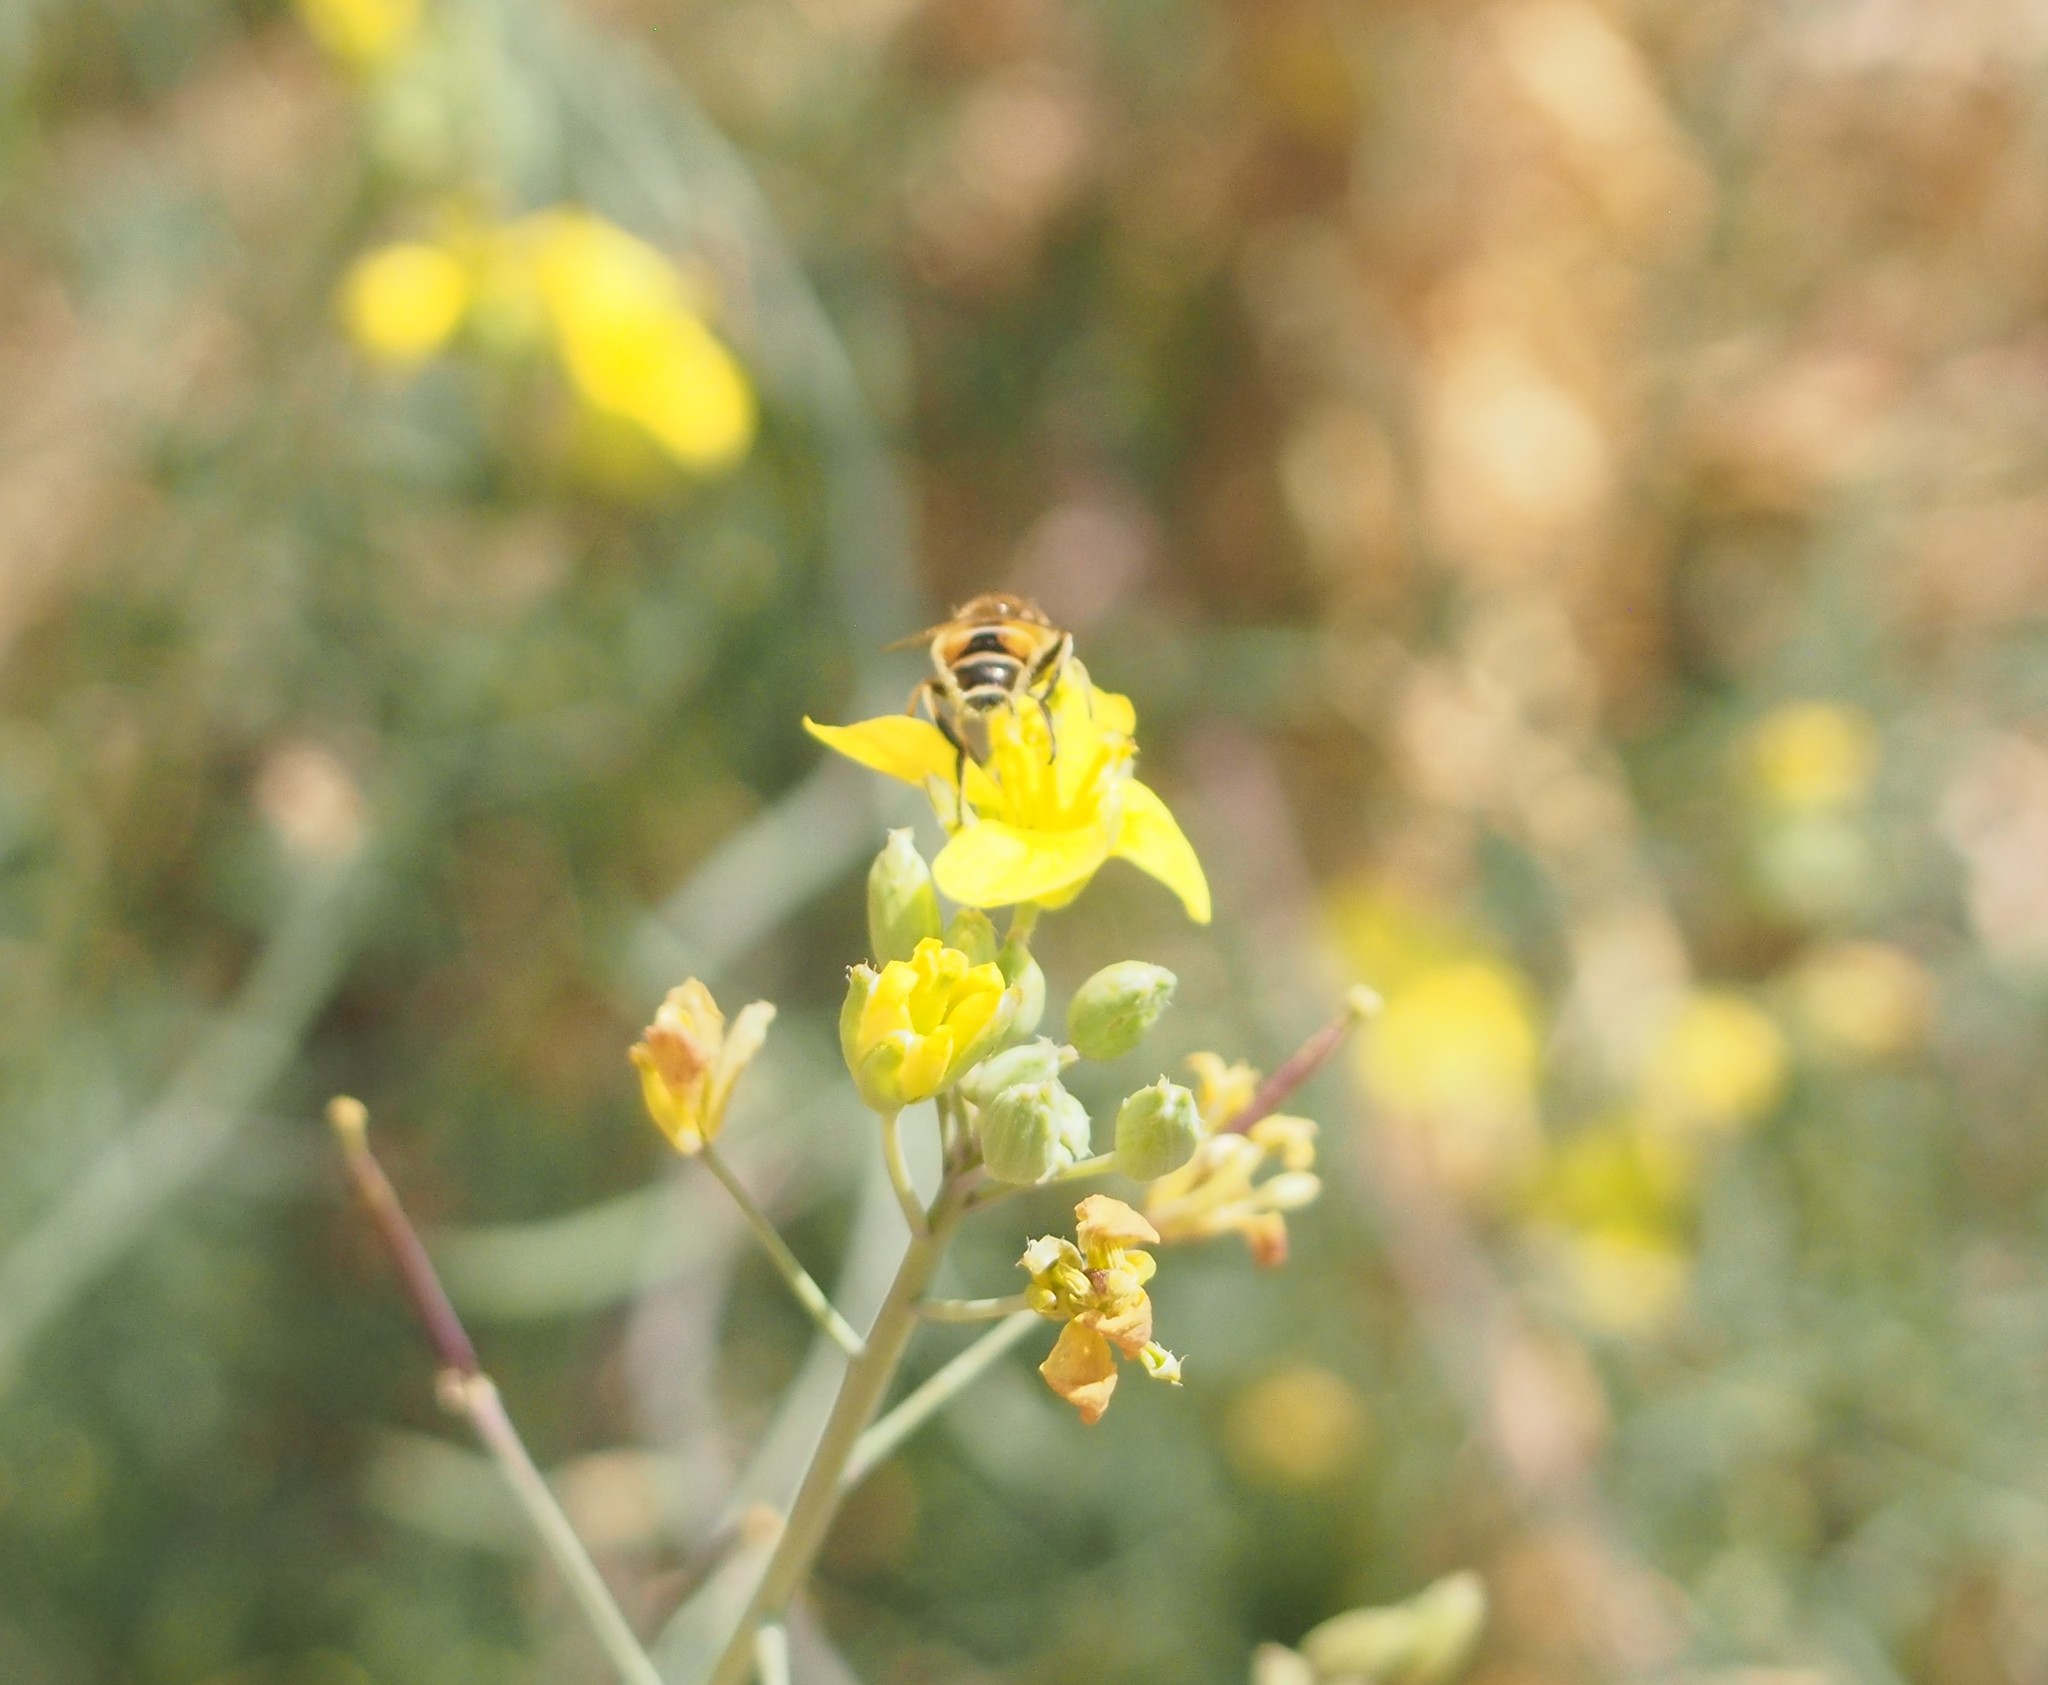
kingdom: Animalia
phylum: Arthropoda
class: Insecta
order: Diptera
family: Syrphidae
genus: Eristalis
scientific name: Eristalis arbustorum
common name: Hover fly
